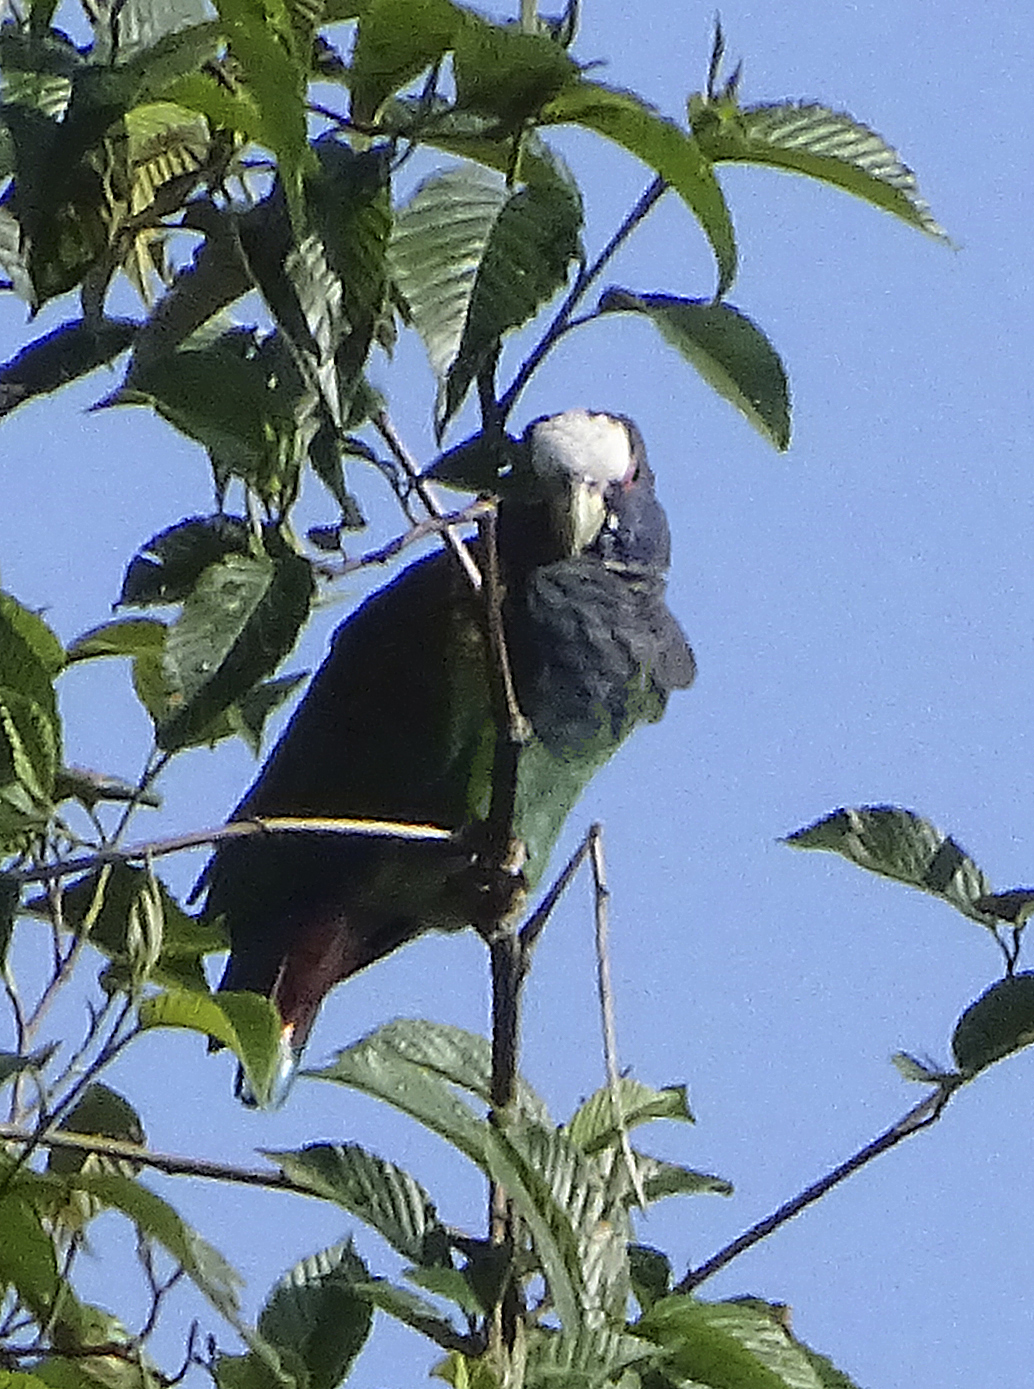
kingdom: Animalia
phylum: Chordata
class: Aves
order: Psittaciformes
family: Psittacidae
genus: Pionus
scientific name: Pionus senilis
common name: White-crowned parrot
